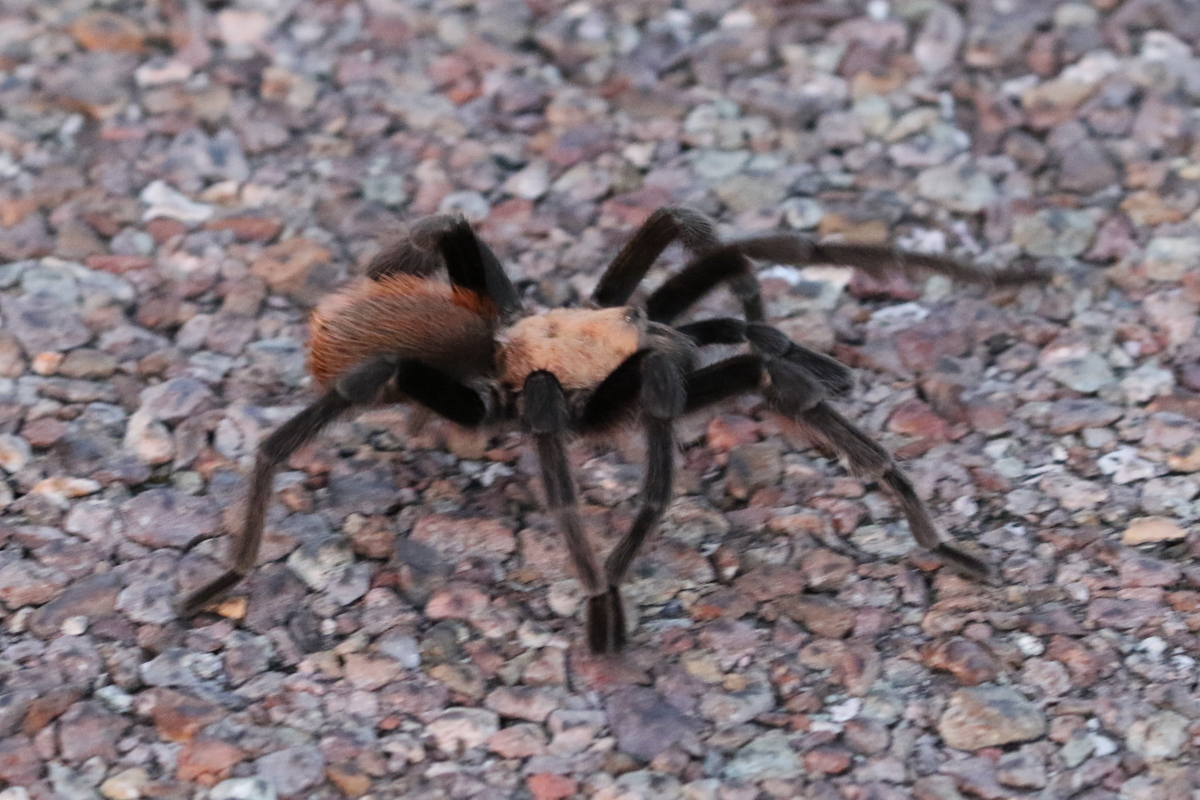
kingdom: Animalia
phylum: Arthropoda
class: Arachnida
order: Araneae
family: Theraphosidae
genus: Aphonopelma
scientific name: Aphonopelma hentzi
